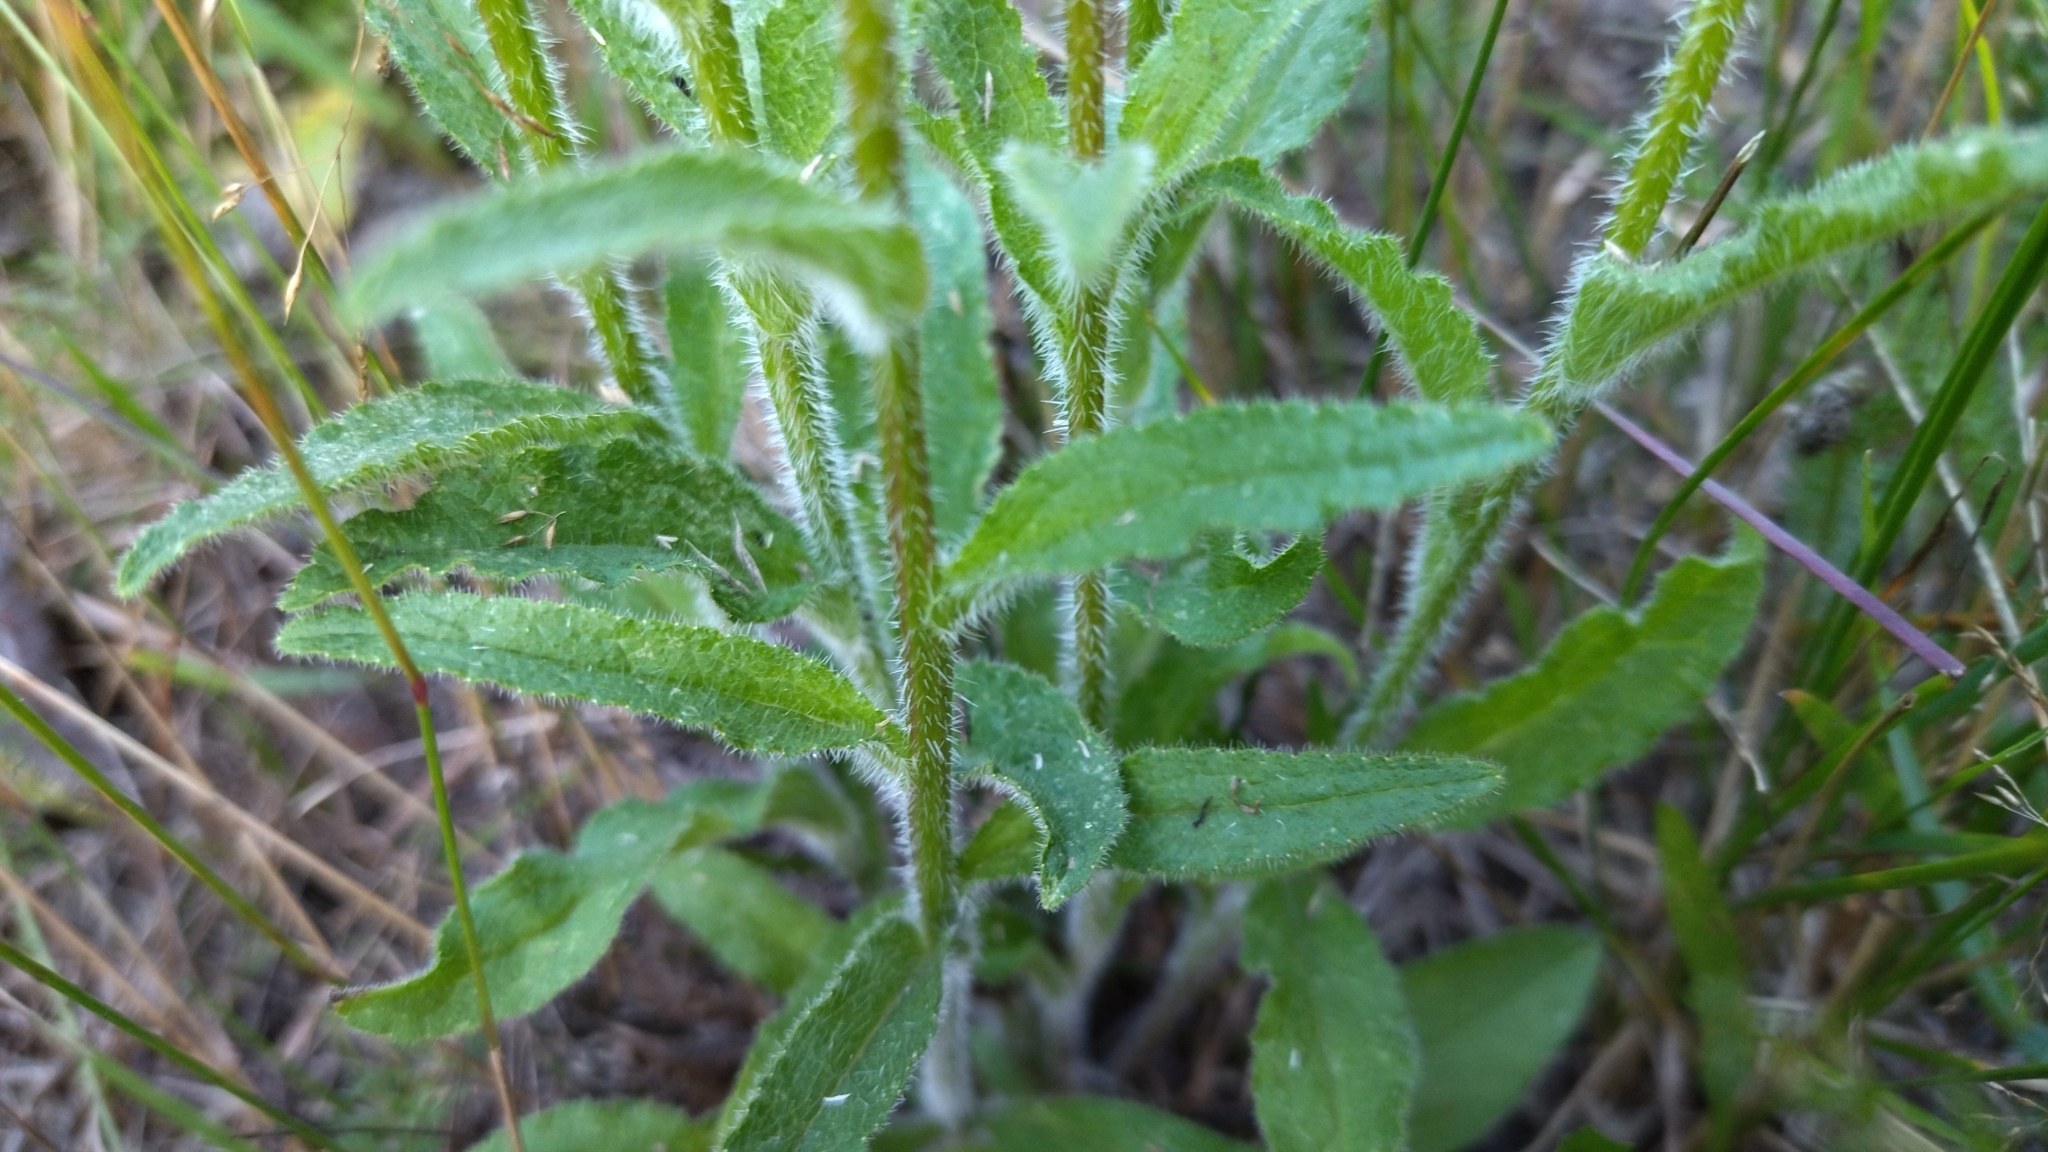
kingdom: Plantae
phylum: Tracheophyta
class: Magnoliopsida
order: Asterales
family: Campanulaceae
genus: Campanula
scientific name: Campanula cervicaria
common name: Bristly bellflower
